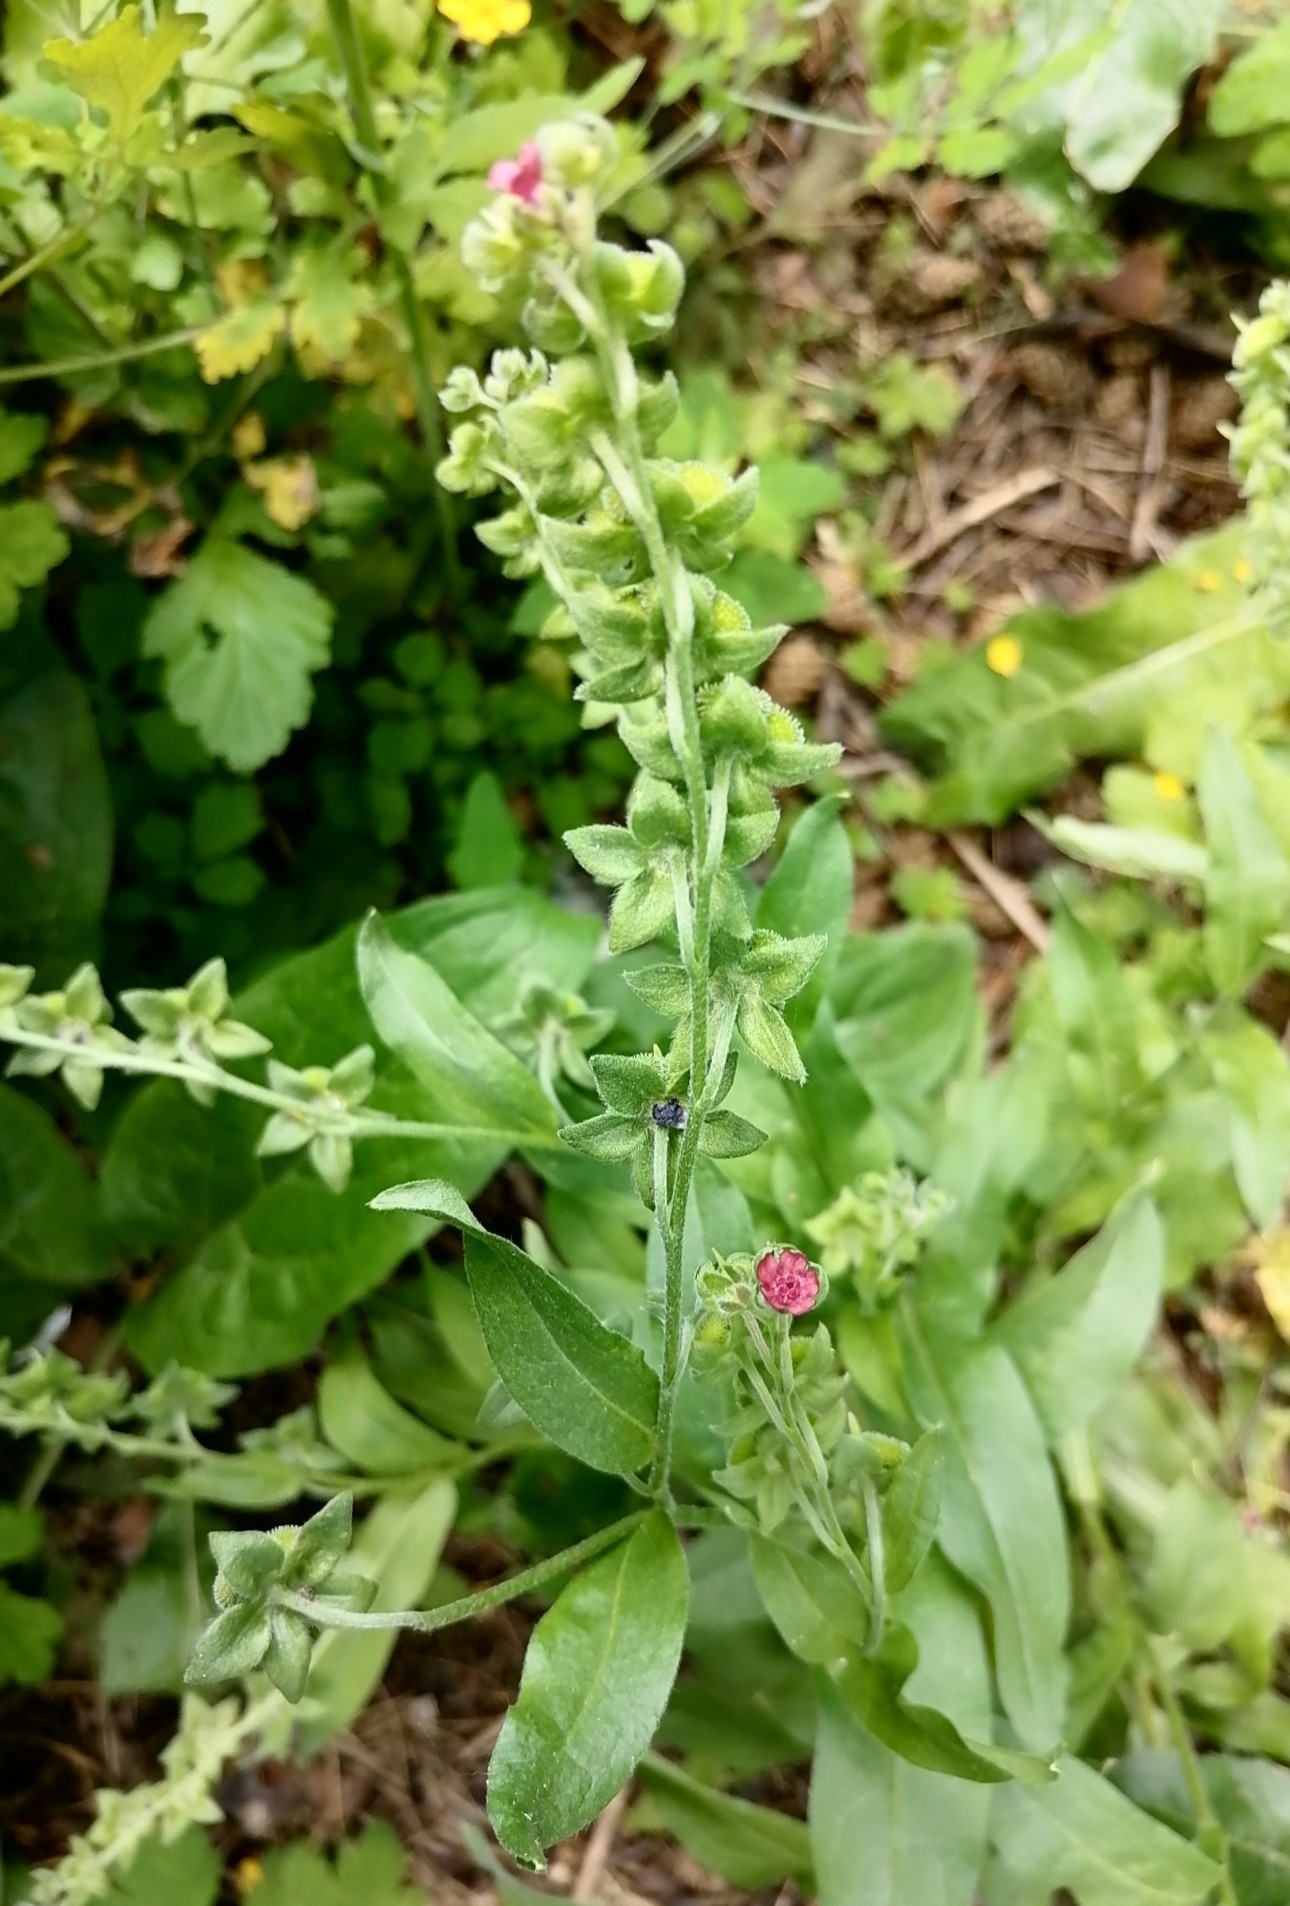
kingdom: Plantae
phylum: Tracheophyta
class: Magnoliopsida
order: Boraginales
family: Boraginaceae
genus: Cynoglossum
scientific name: Cynoglossum officinale
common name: Hound's-tongue
